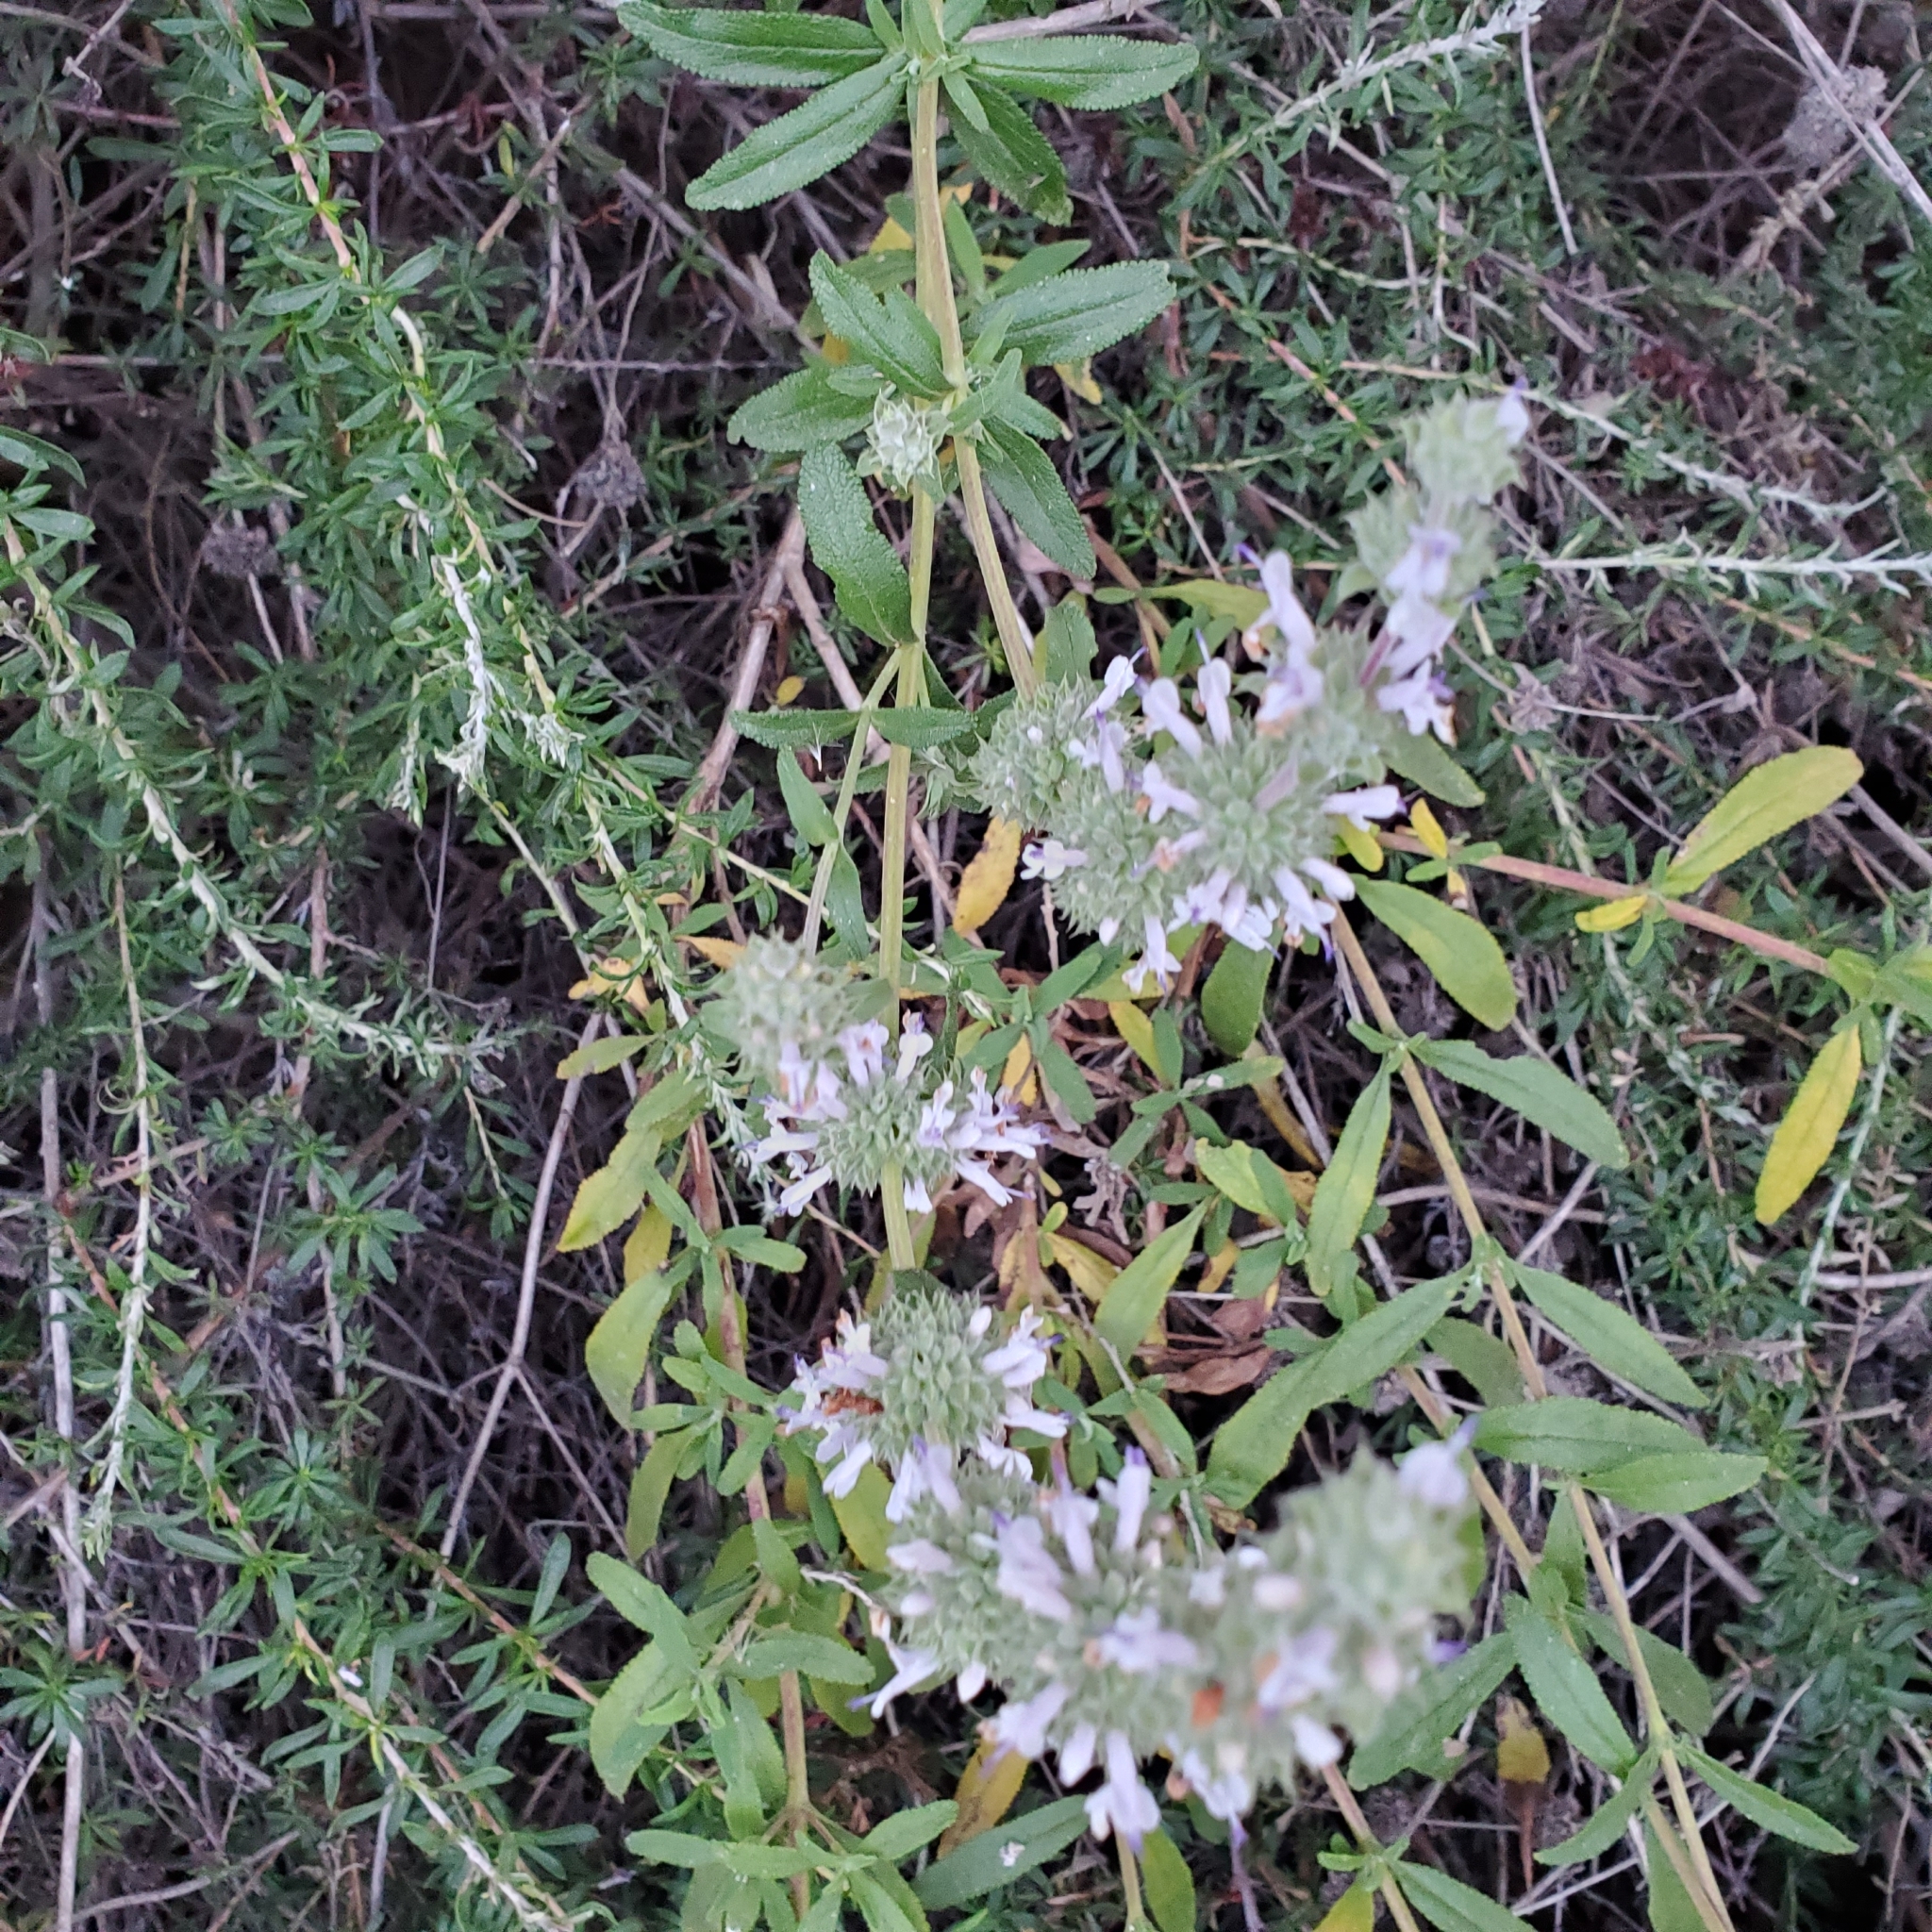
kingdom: Plantae
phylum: Tracheophyta
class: Magnoliopsida
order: Lamiales
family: Lamiaceae
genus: Salvia
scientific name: Salvia mellifera
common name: Black sage
